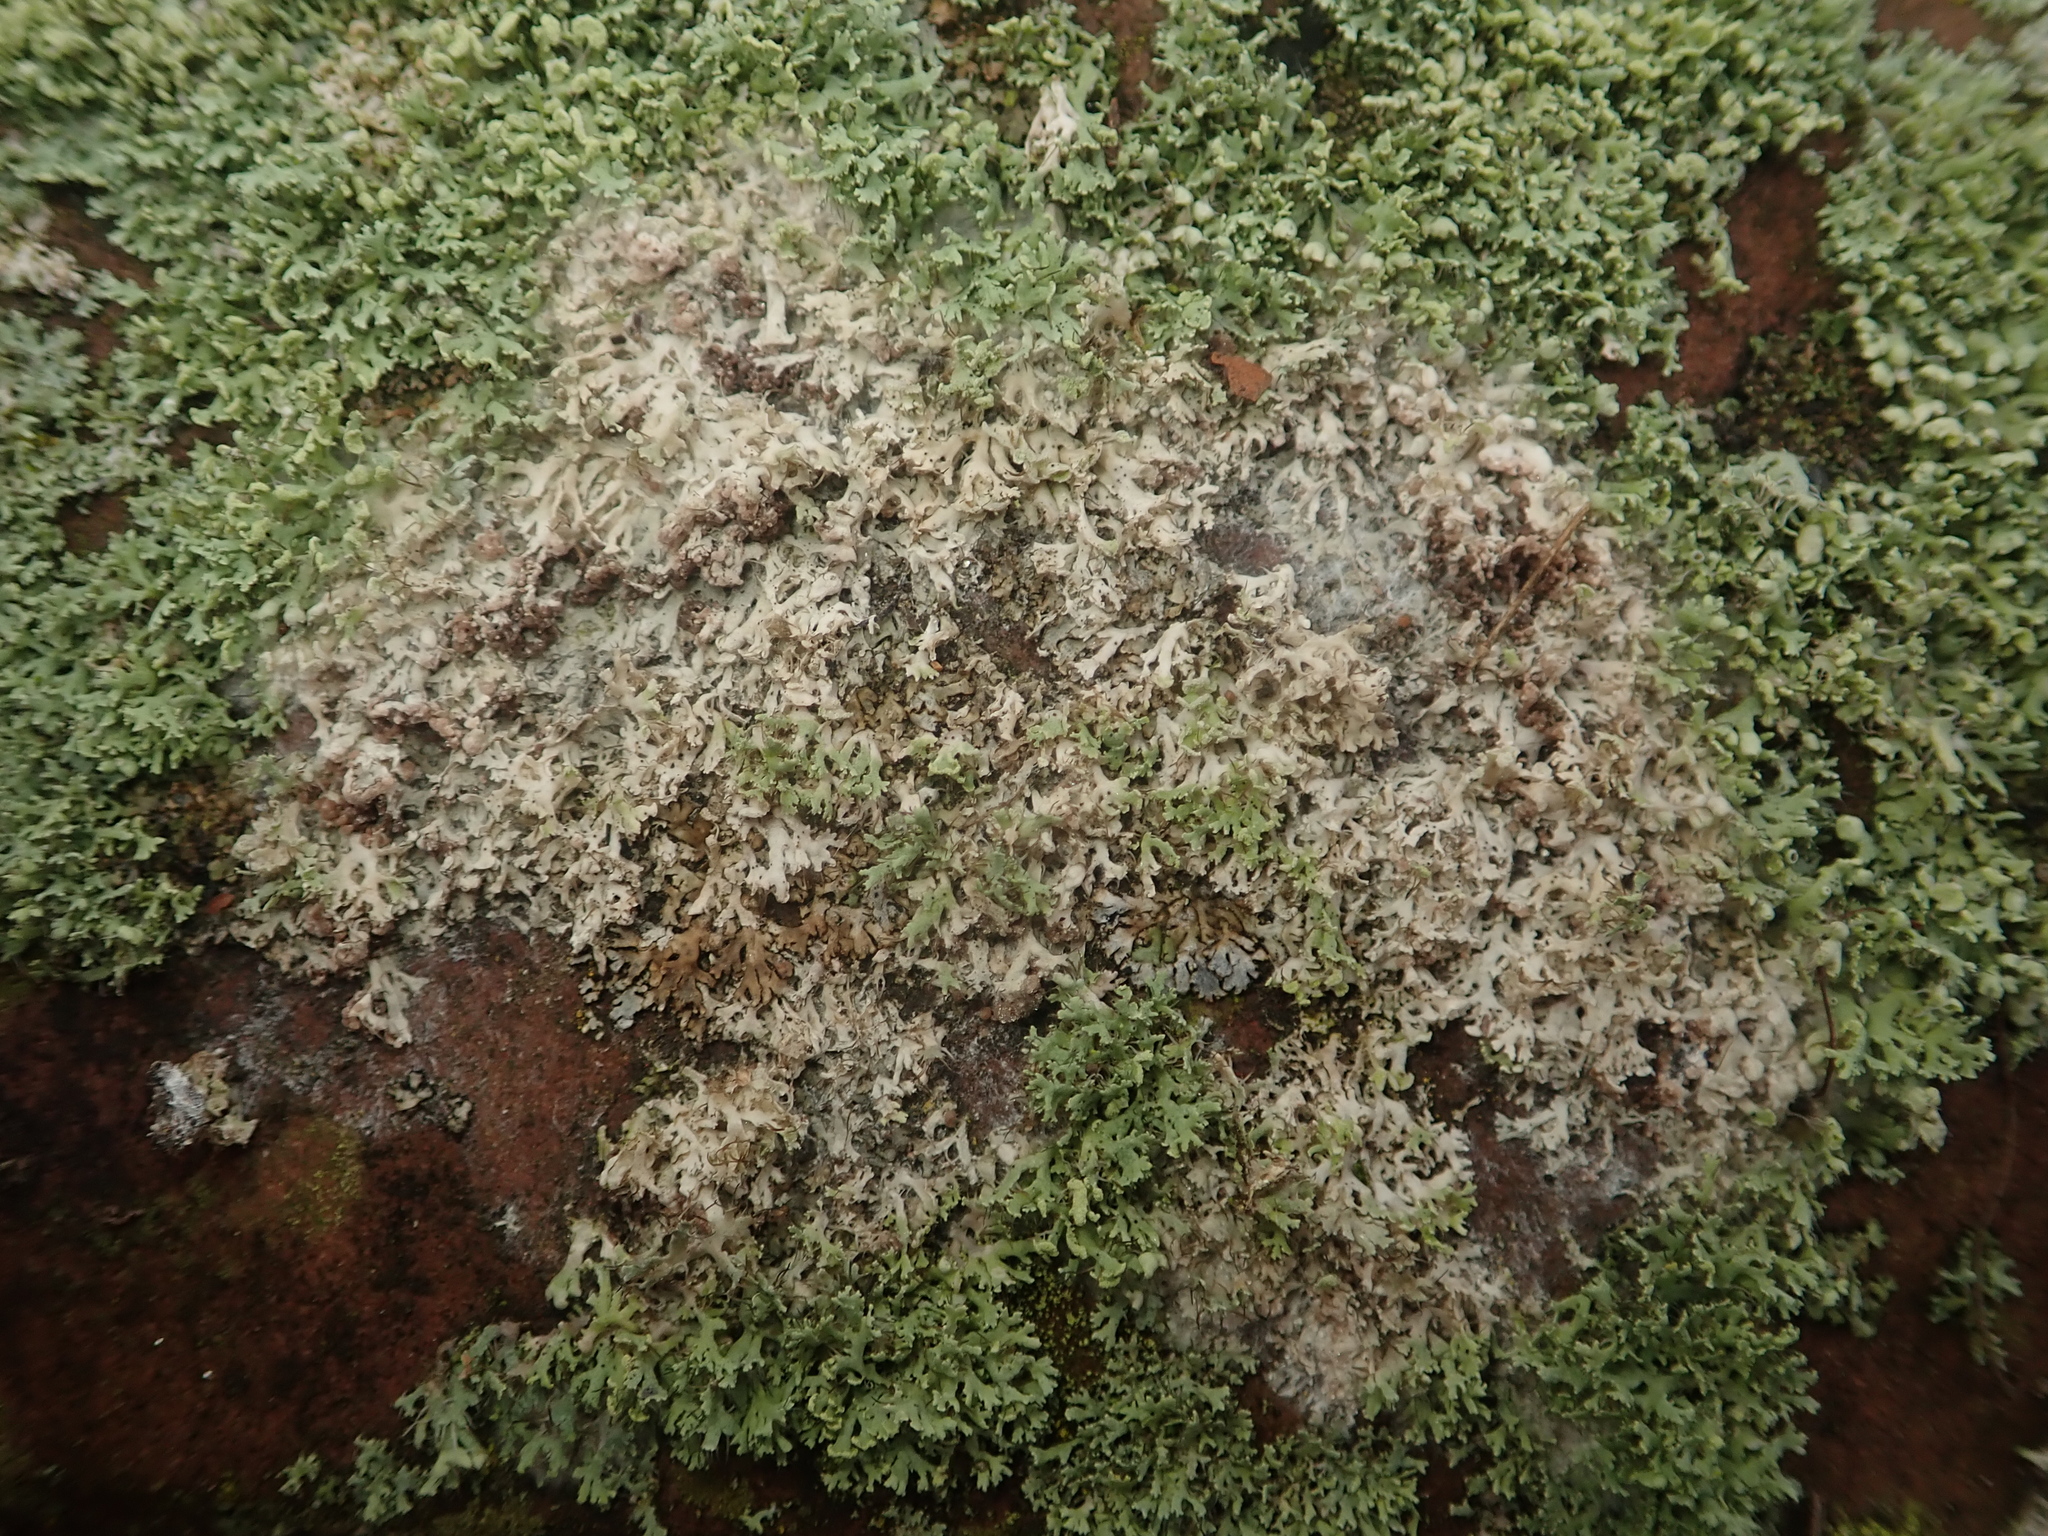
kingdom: Fungi
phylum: Basidiomycota
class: Agaricomycetes
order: Atheliales
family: Atheliaceae
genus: Athelia
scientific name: Athelia arachnoidea
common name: Candelabra duster
